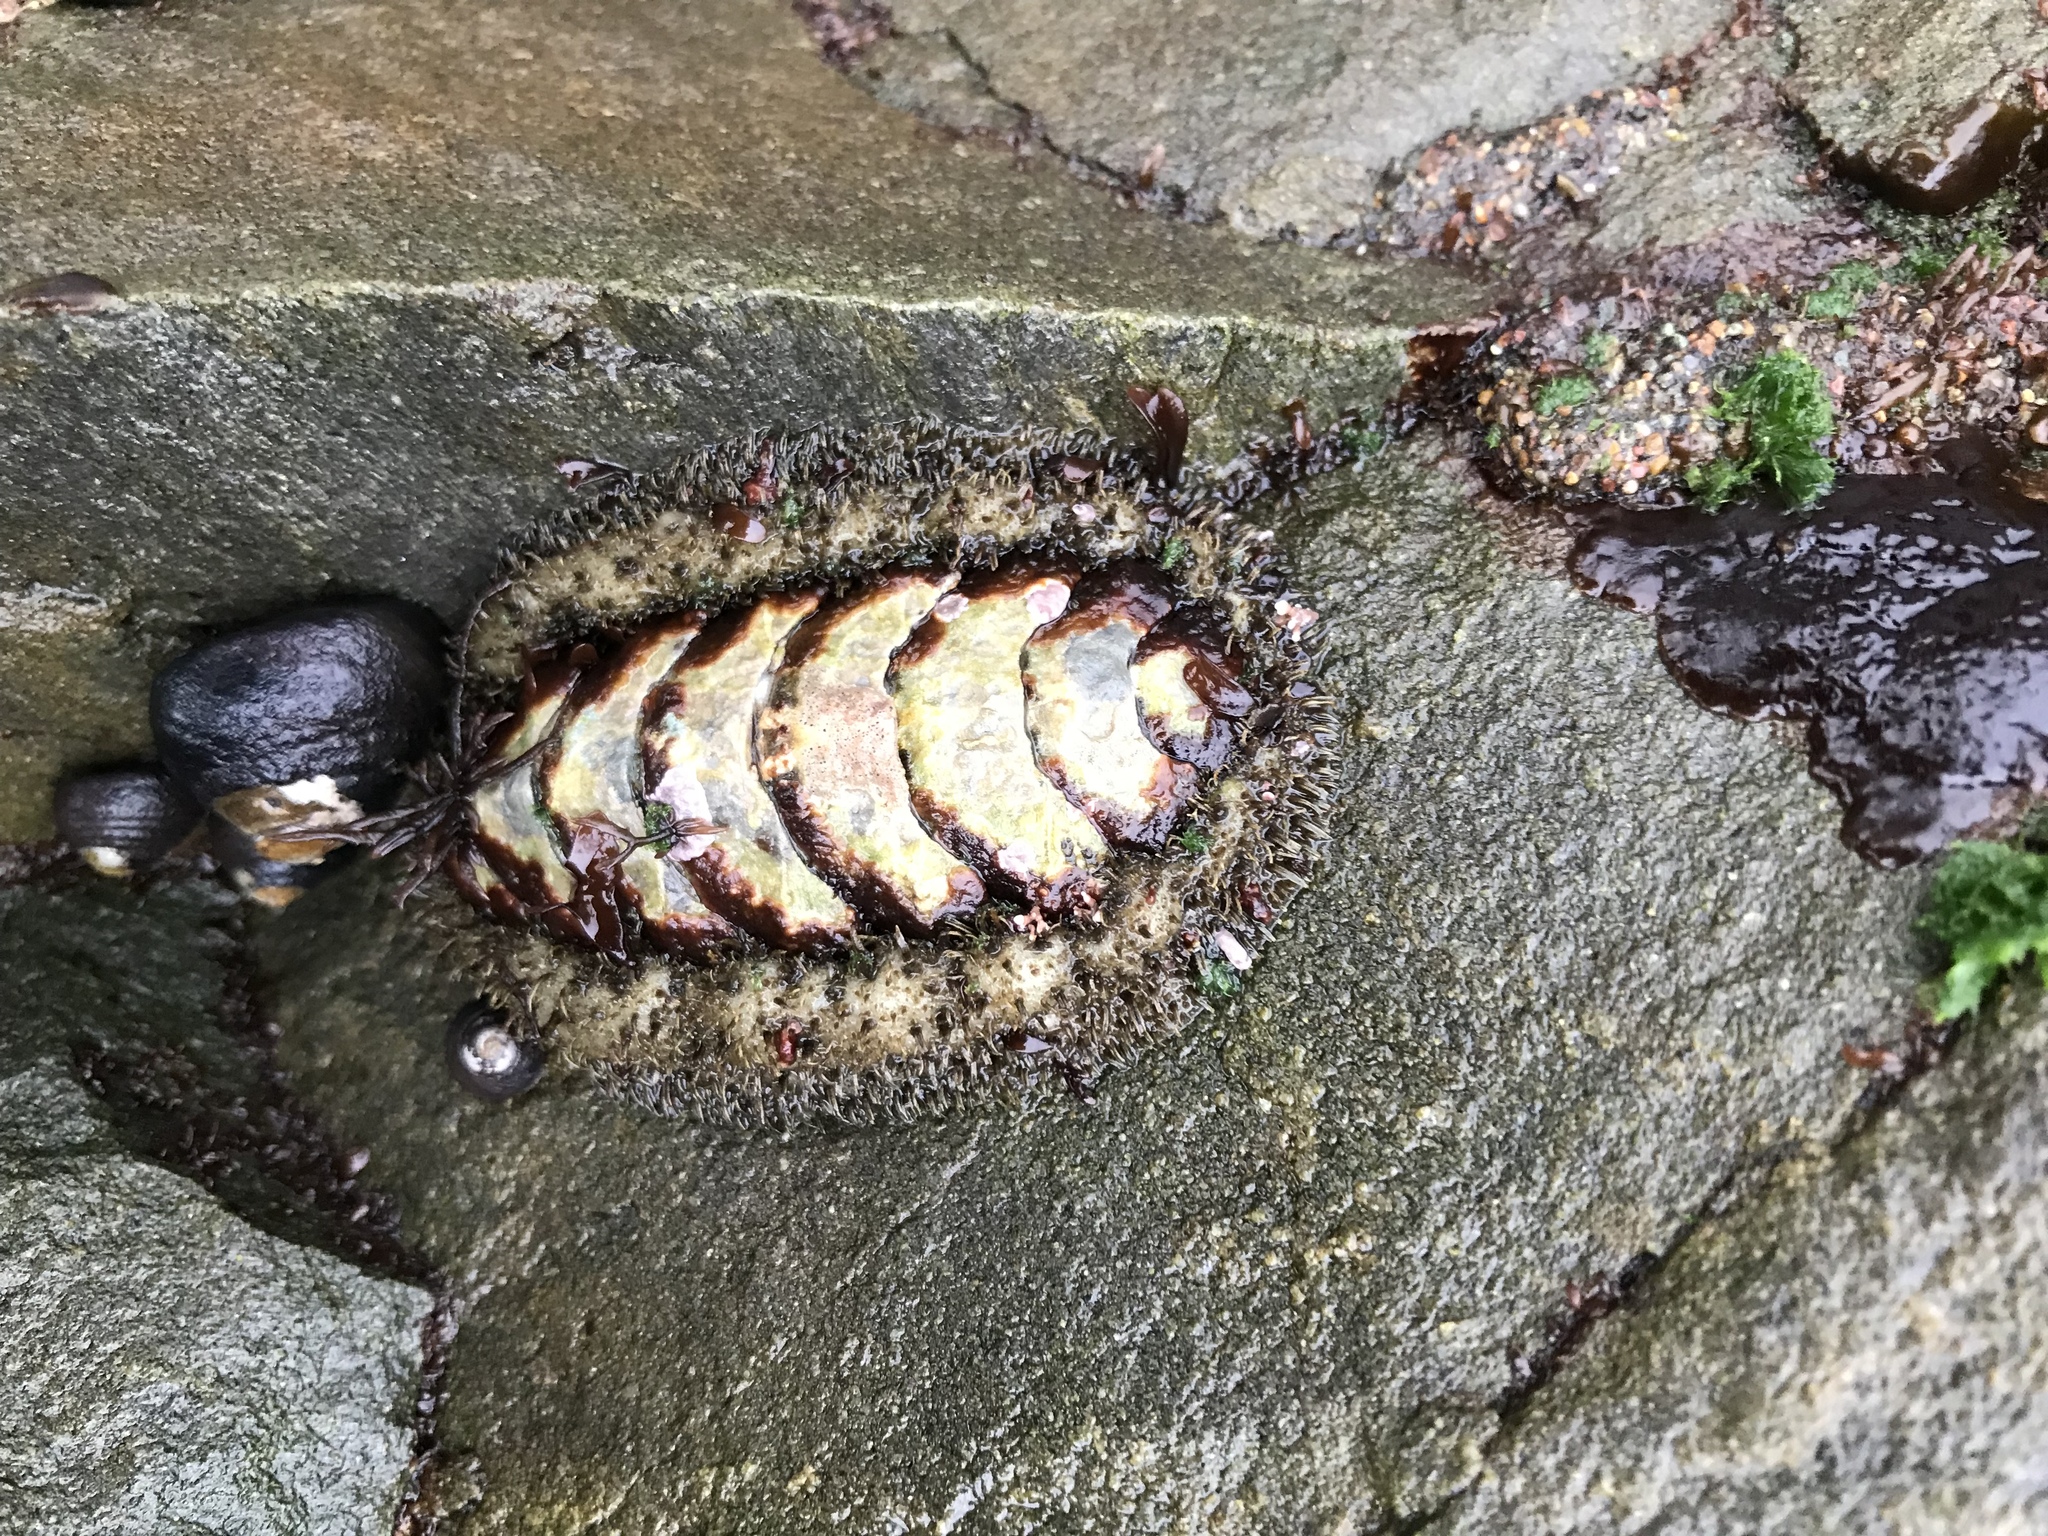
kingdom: Animalia
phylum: Mollusca
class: Polyplacophora
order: Chitonida
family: Mopaliidae
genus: Mopalia
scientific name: Mopalia muscosa
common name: Mossy chiton
